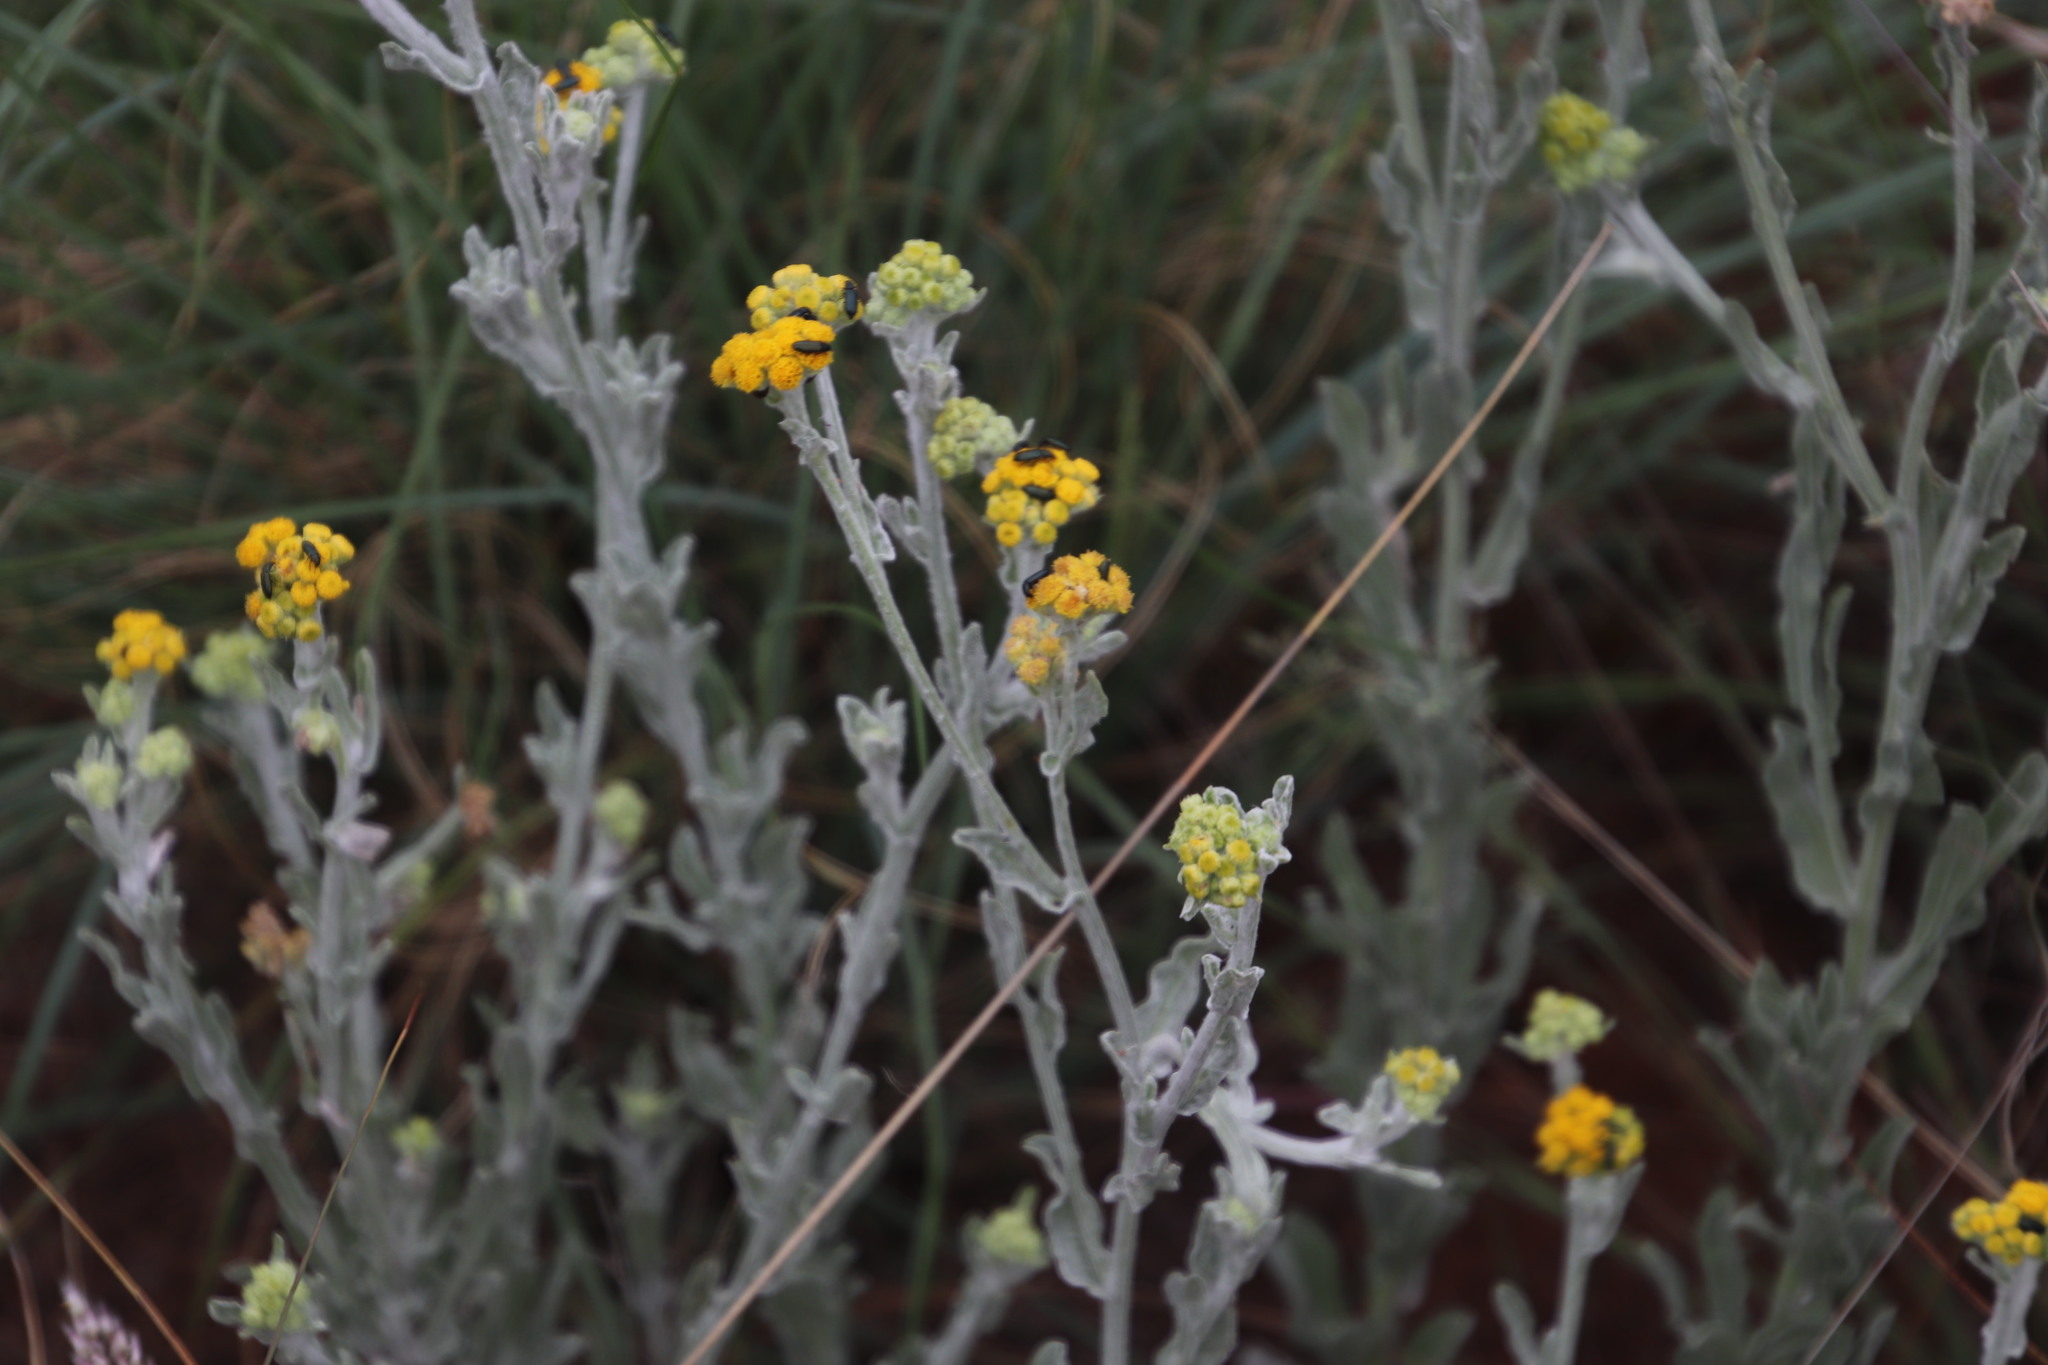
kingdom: Plantae
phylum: Tracheophyta
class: Magnoliopsida
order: Asterales
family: Asteraceae
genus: Nidorella
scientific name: Nidorella hottentotica
